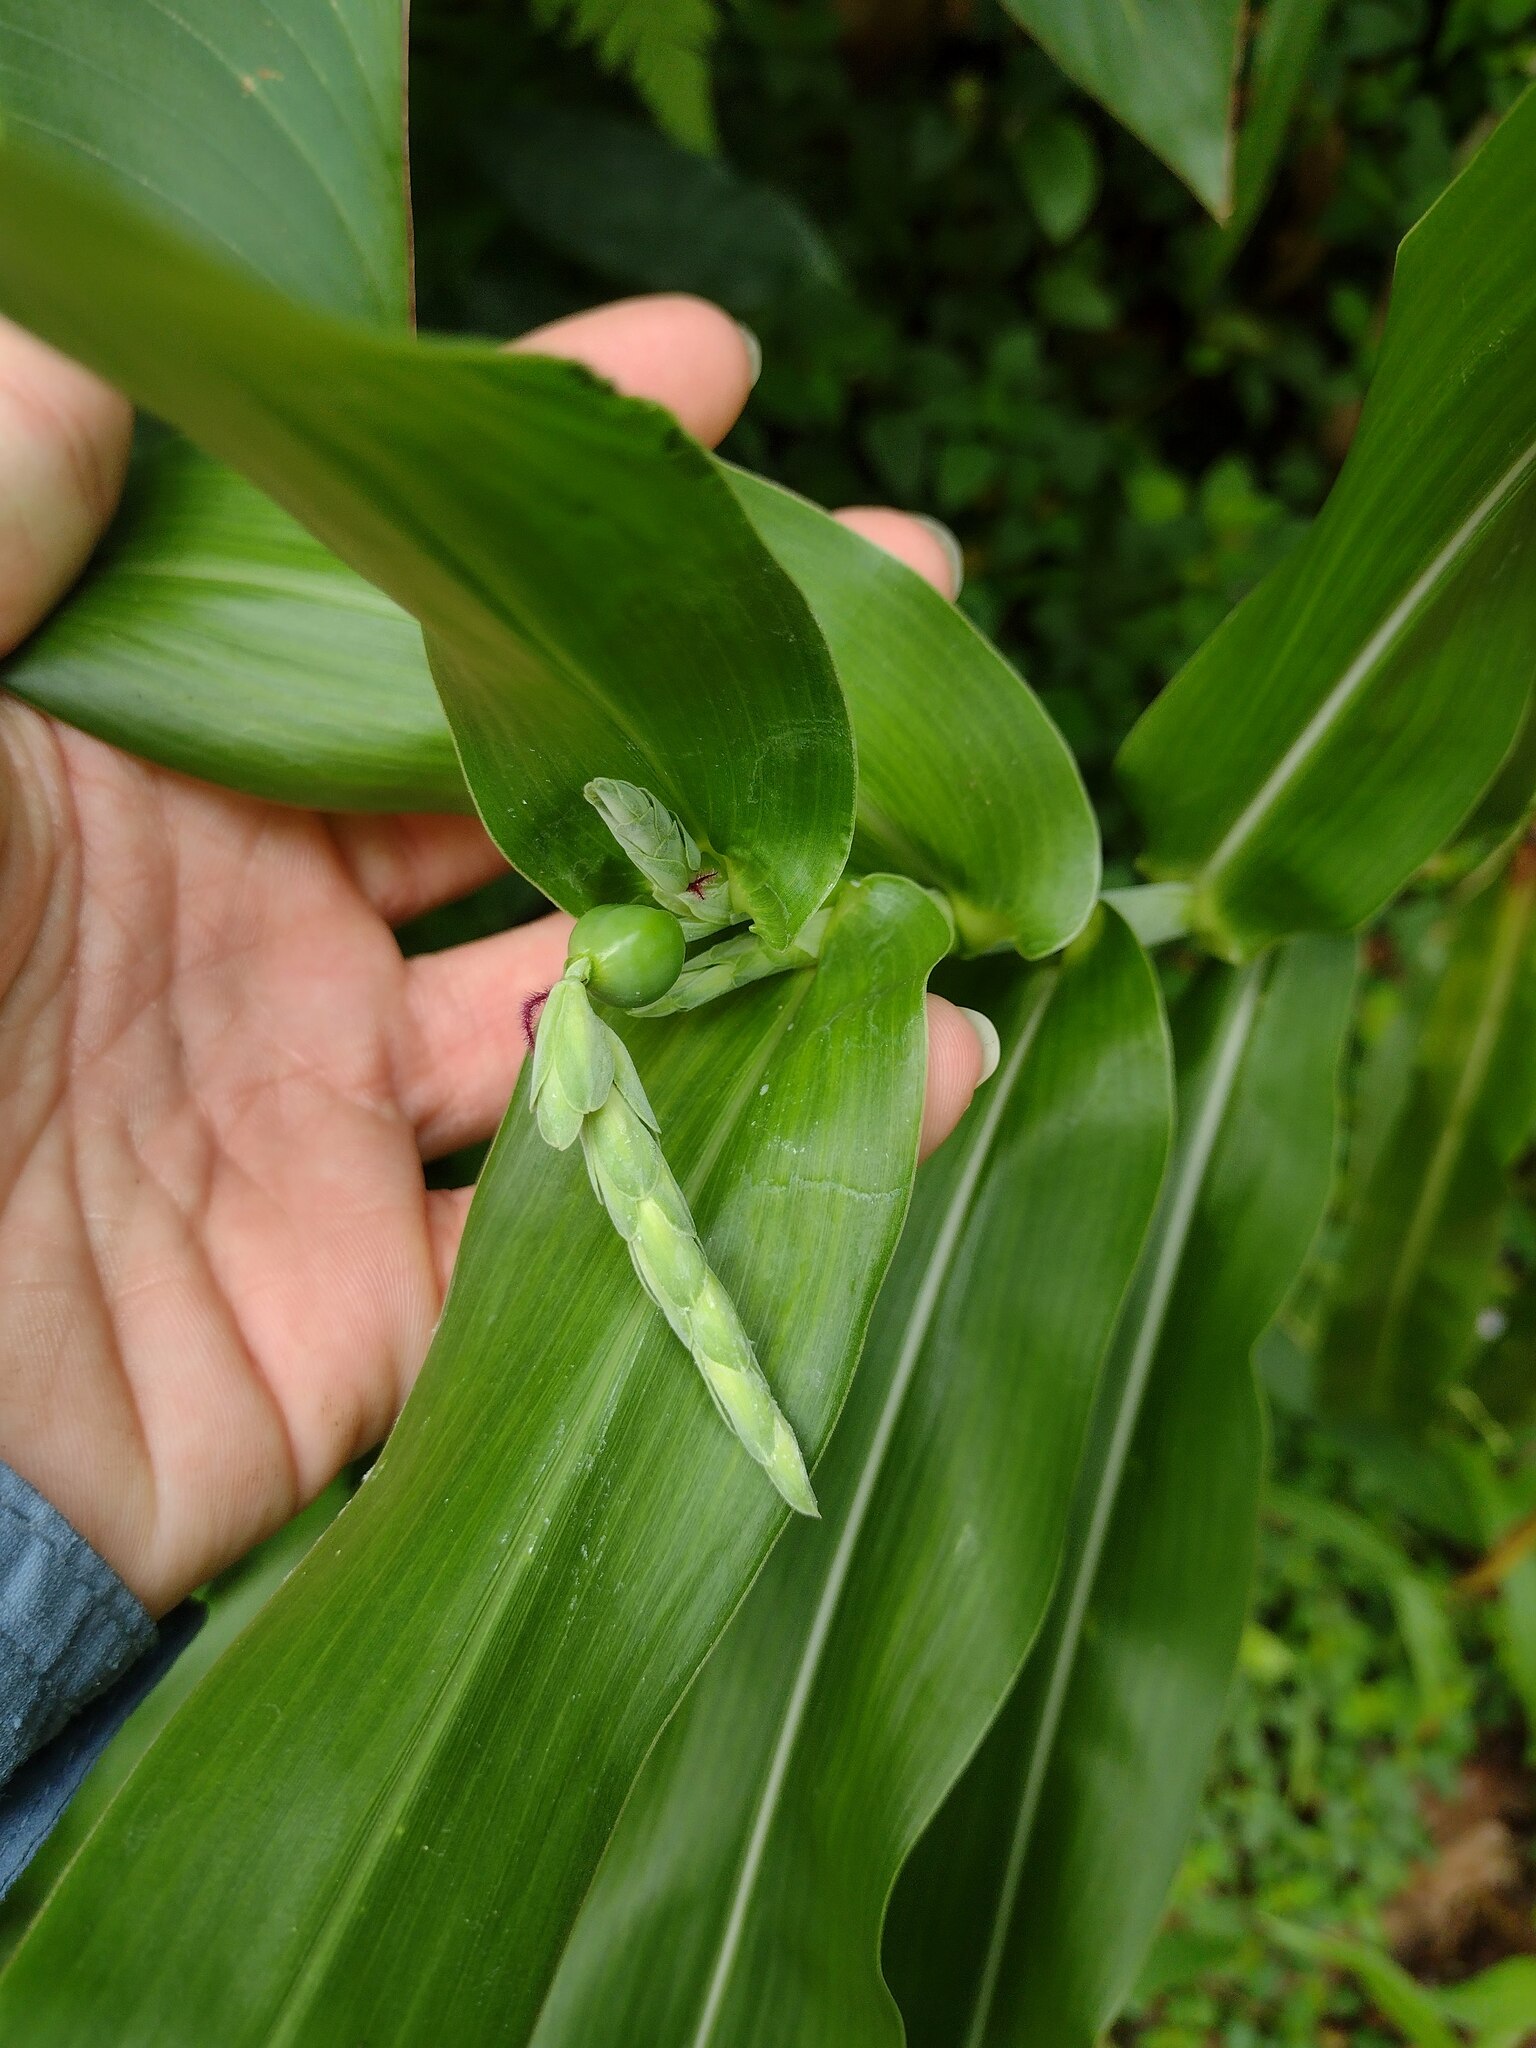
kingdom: Plantae
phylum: Tracheophyta
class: Liliopsida
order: Poales
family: Poaceae
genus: Coix
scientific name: Coix lacryma-jobi
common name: Job's tears
